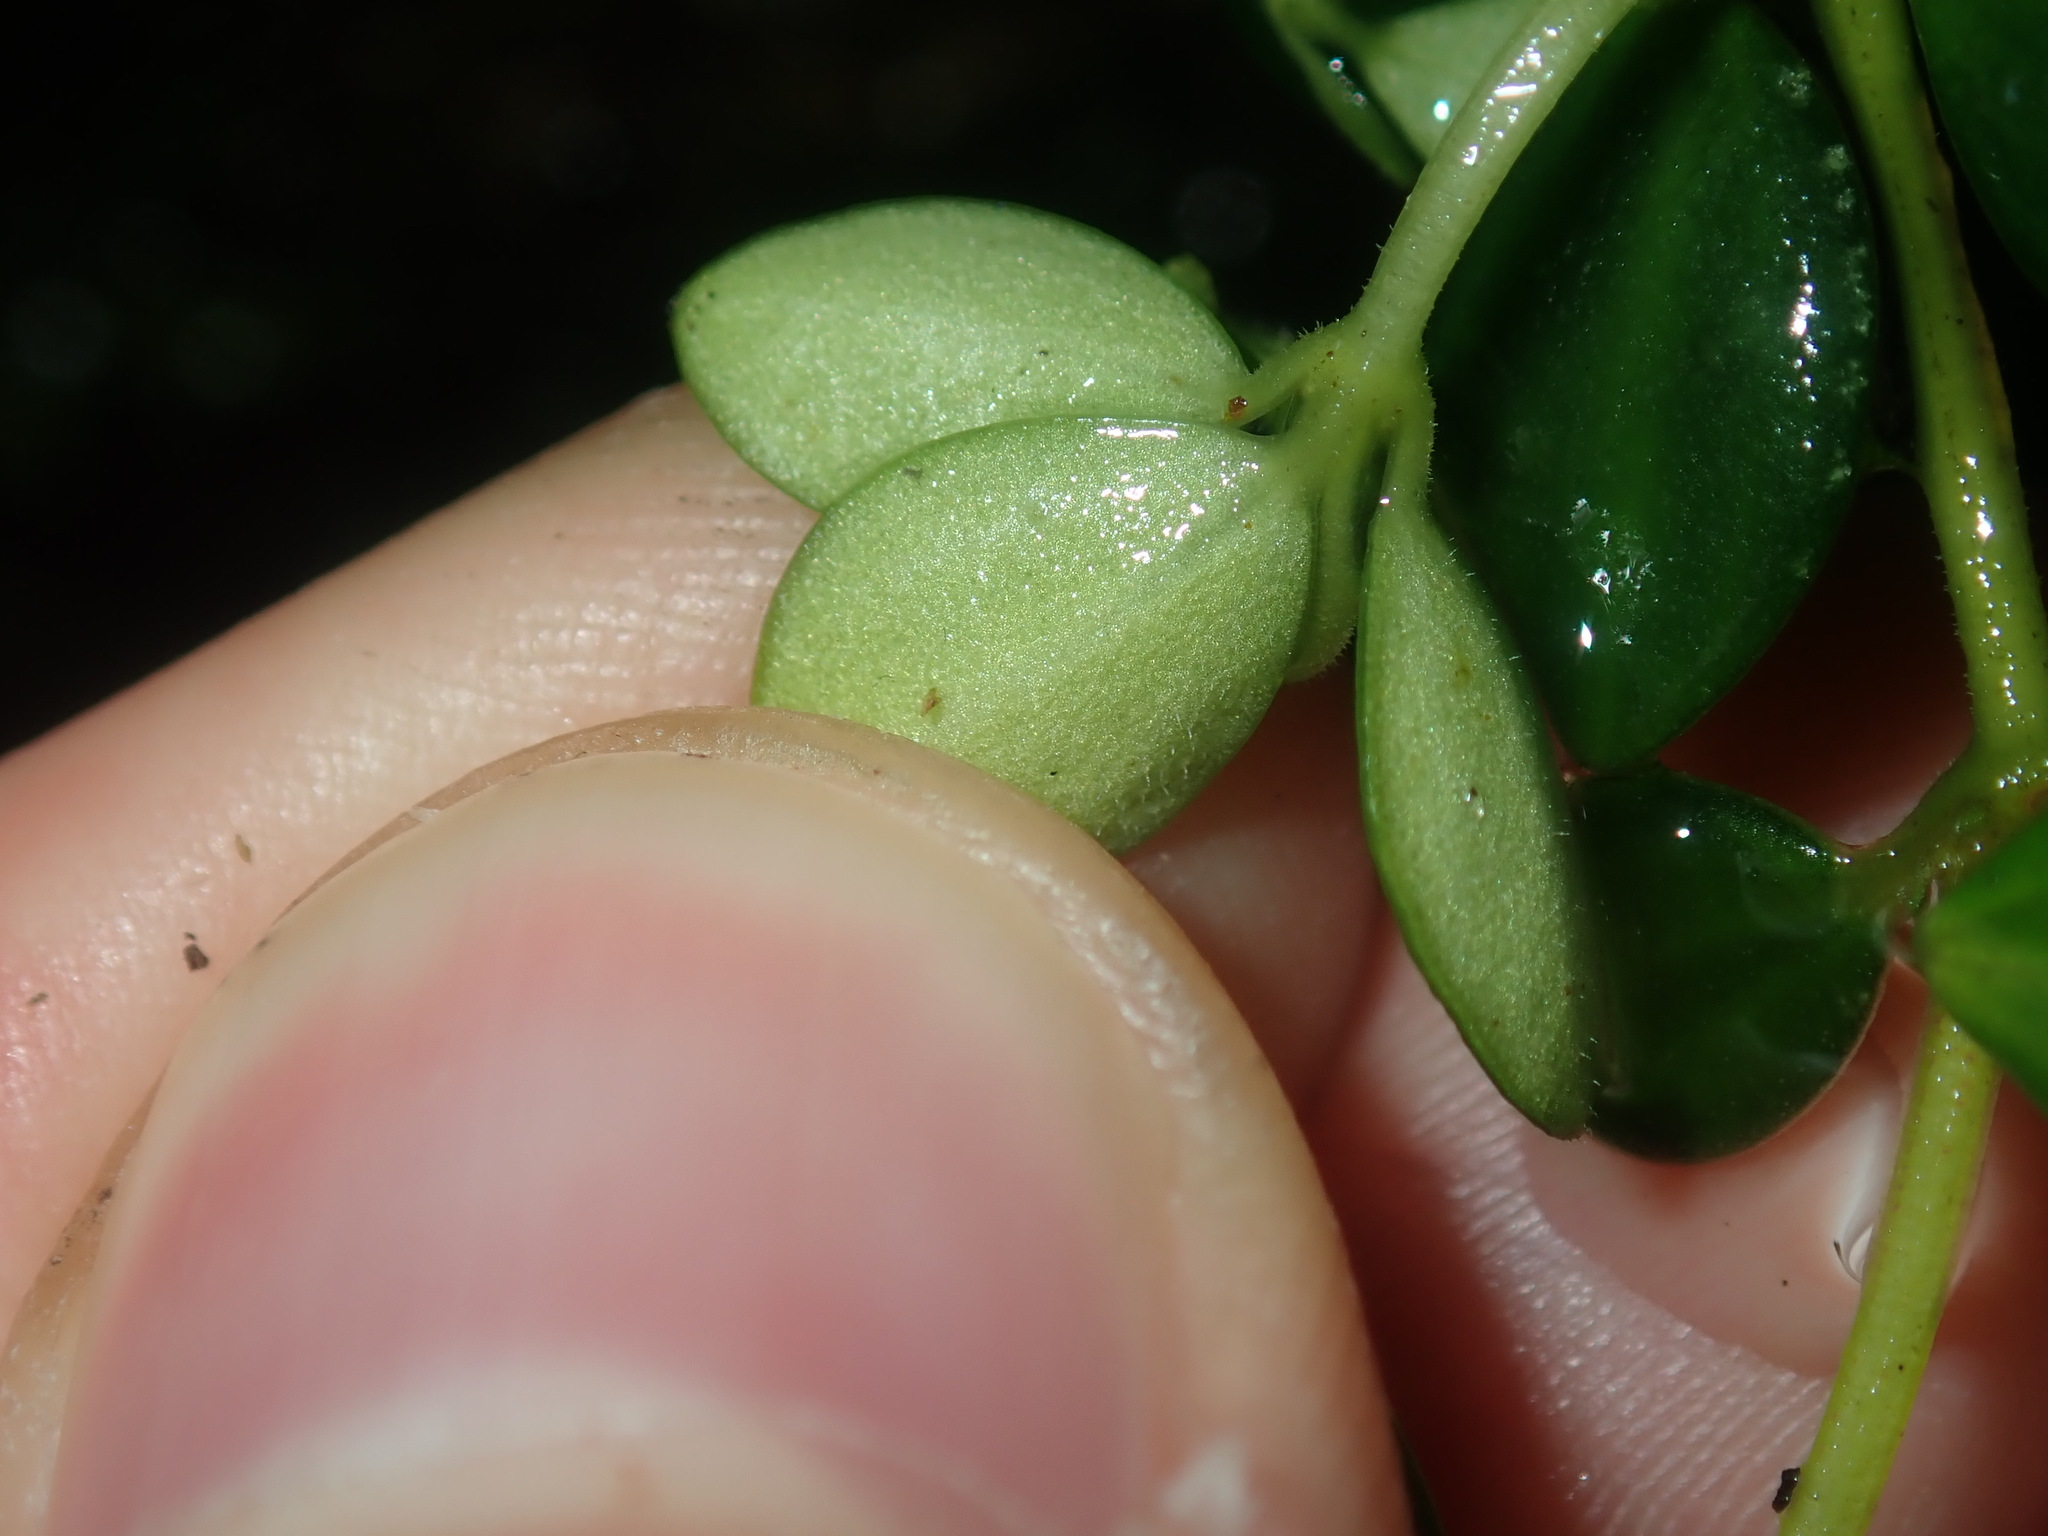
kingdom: Plantae
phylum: Tracheophyta
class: Magnoliopsida
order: Piperales
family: Piperaceae
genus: Peperomia
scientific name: Peperomia tetraphylla
